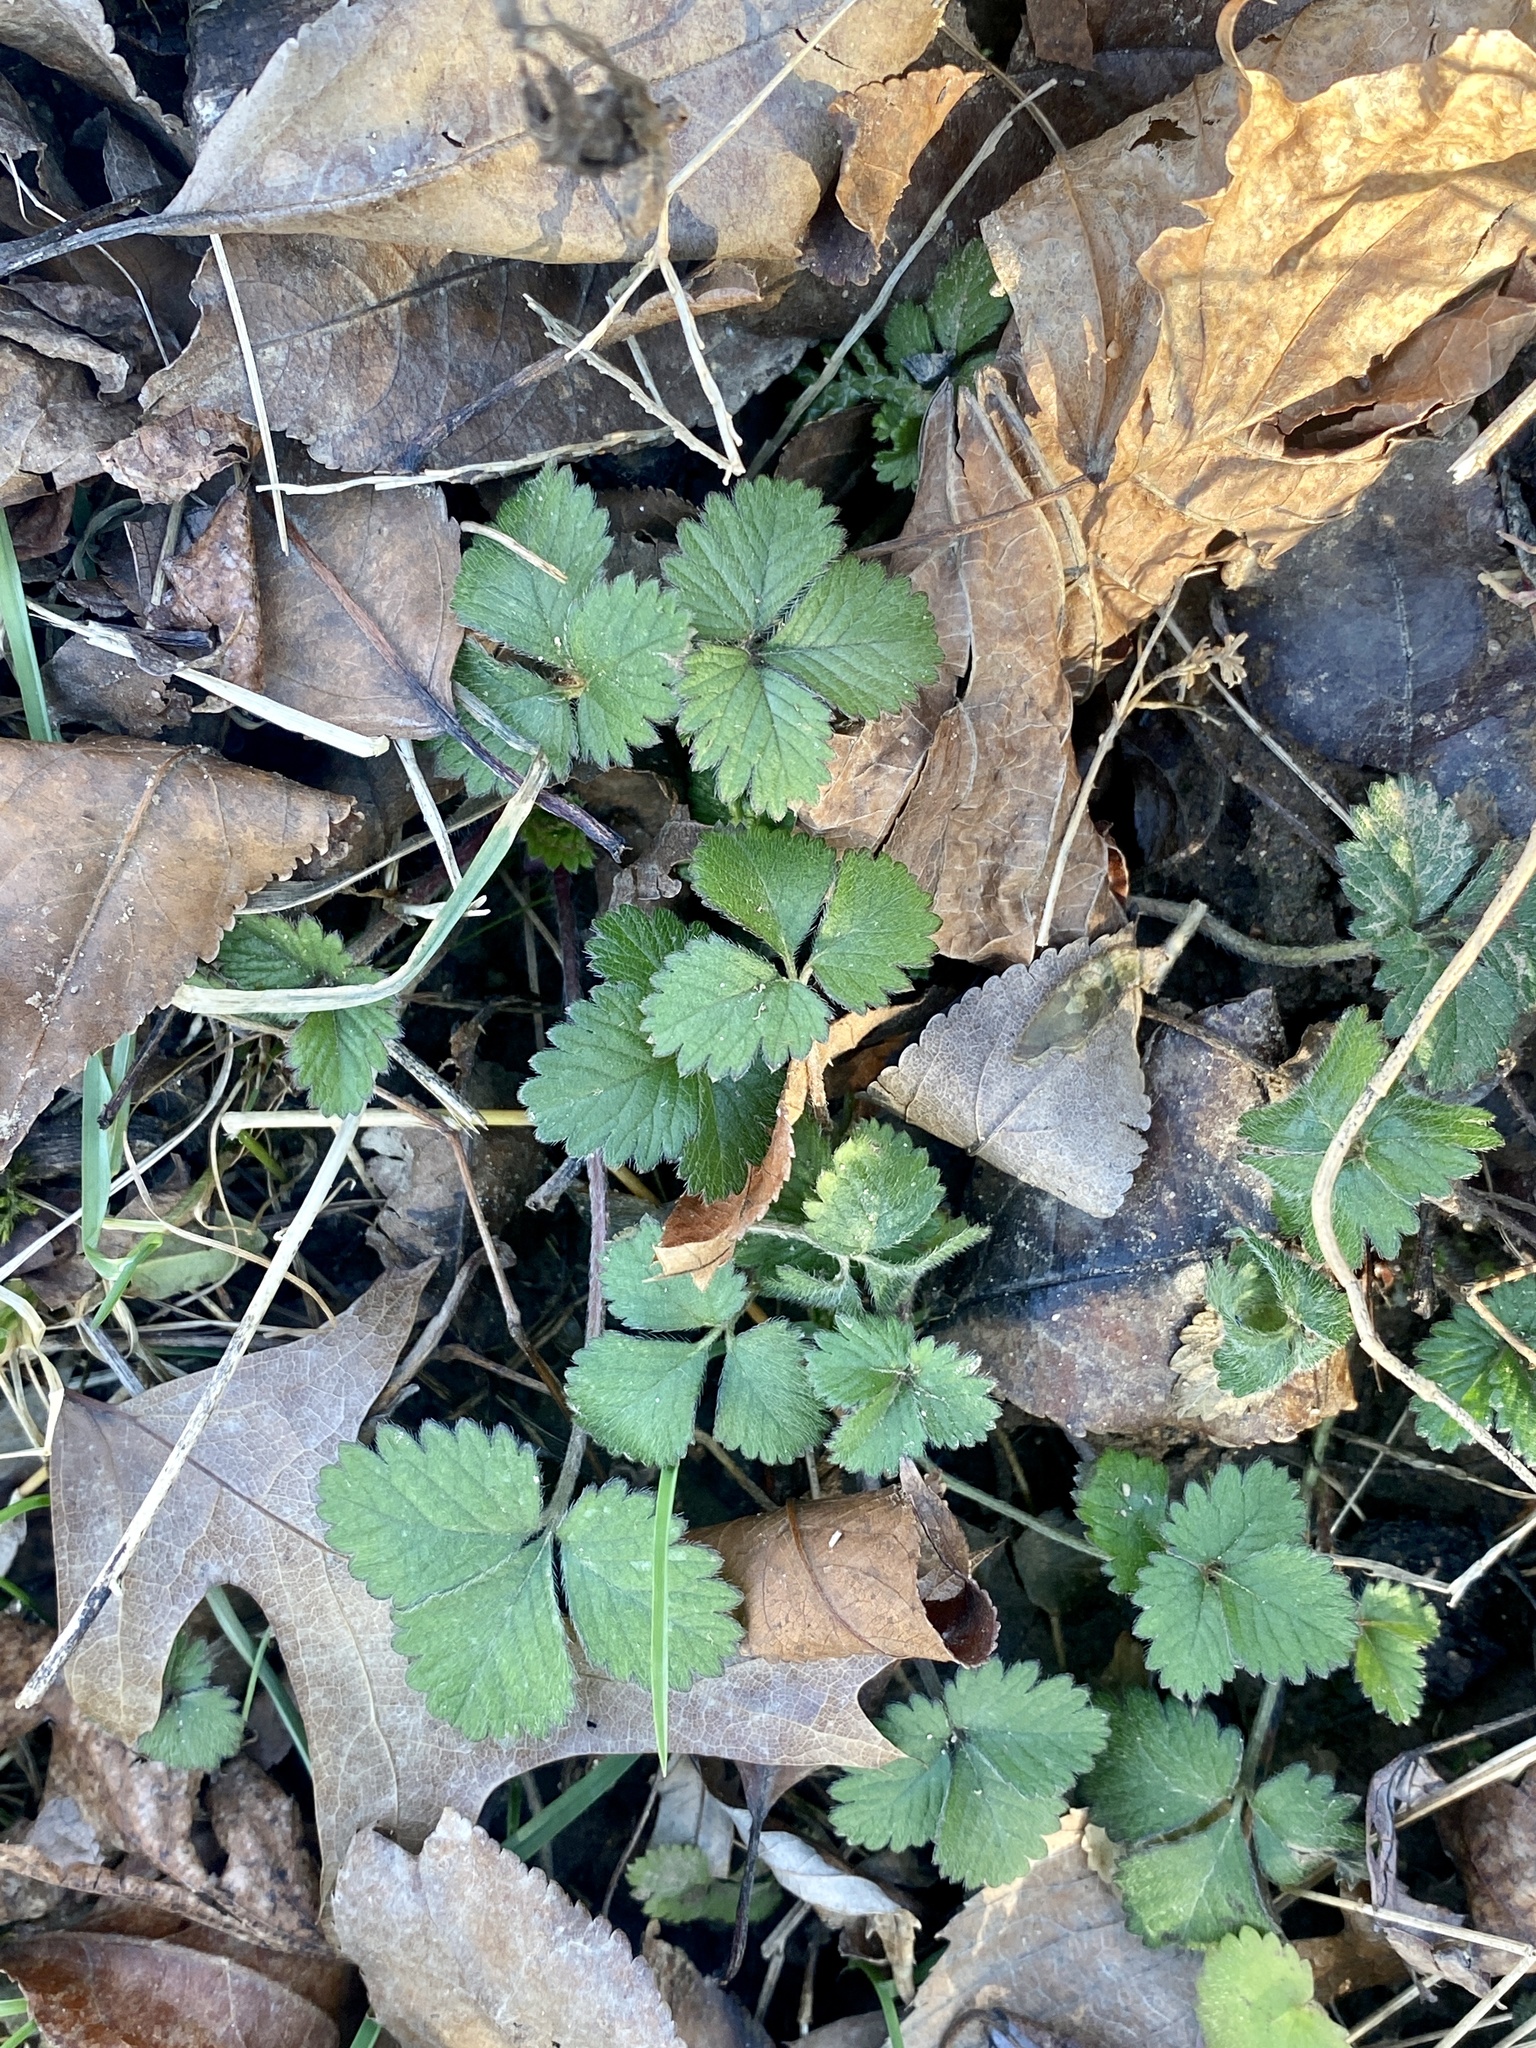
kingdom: Plantae
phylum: Tracheophyta
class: Magnoliopsida
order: Rosales
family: Rosaceae
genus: Potentilla
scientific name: Potentilla indica
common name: Yellow-flowered strawberry
